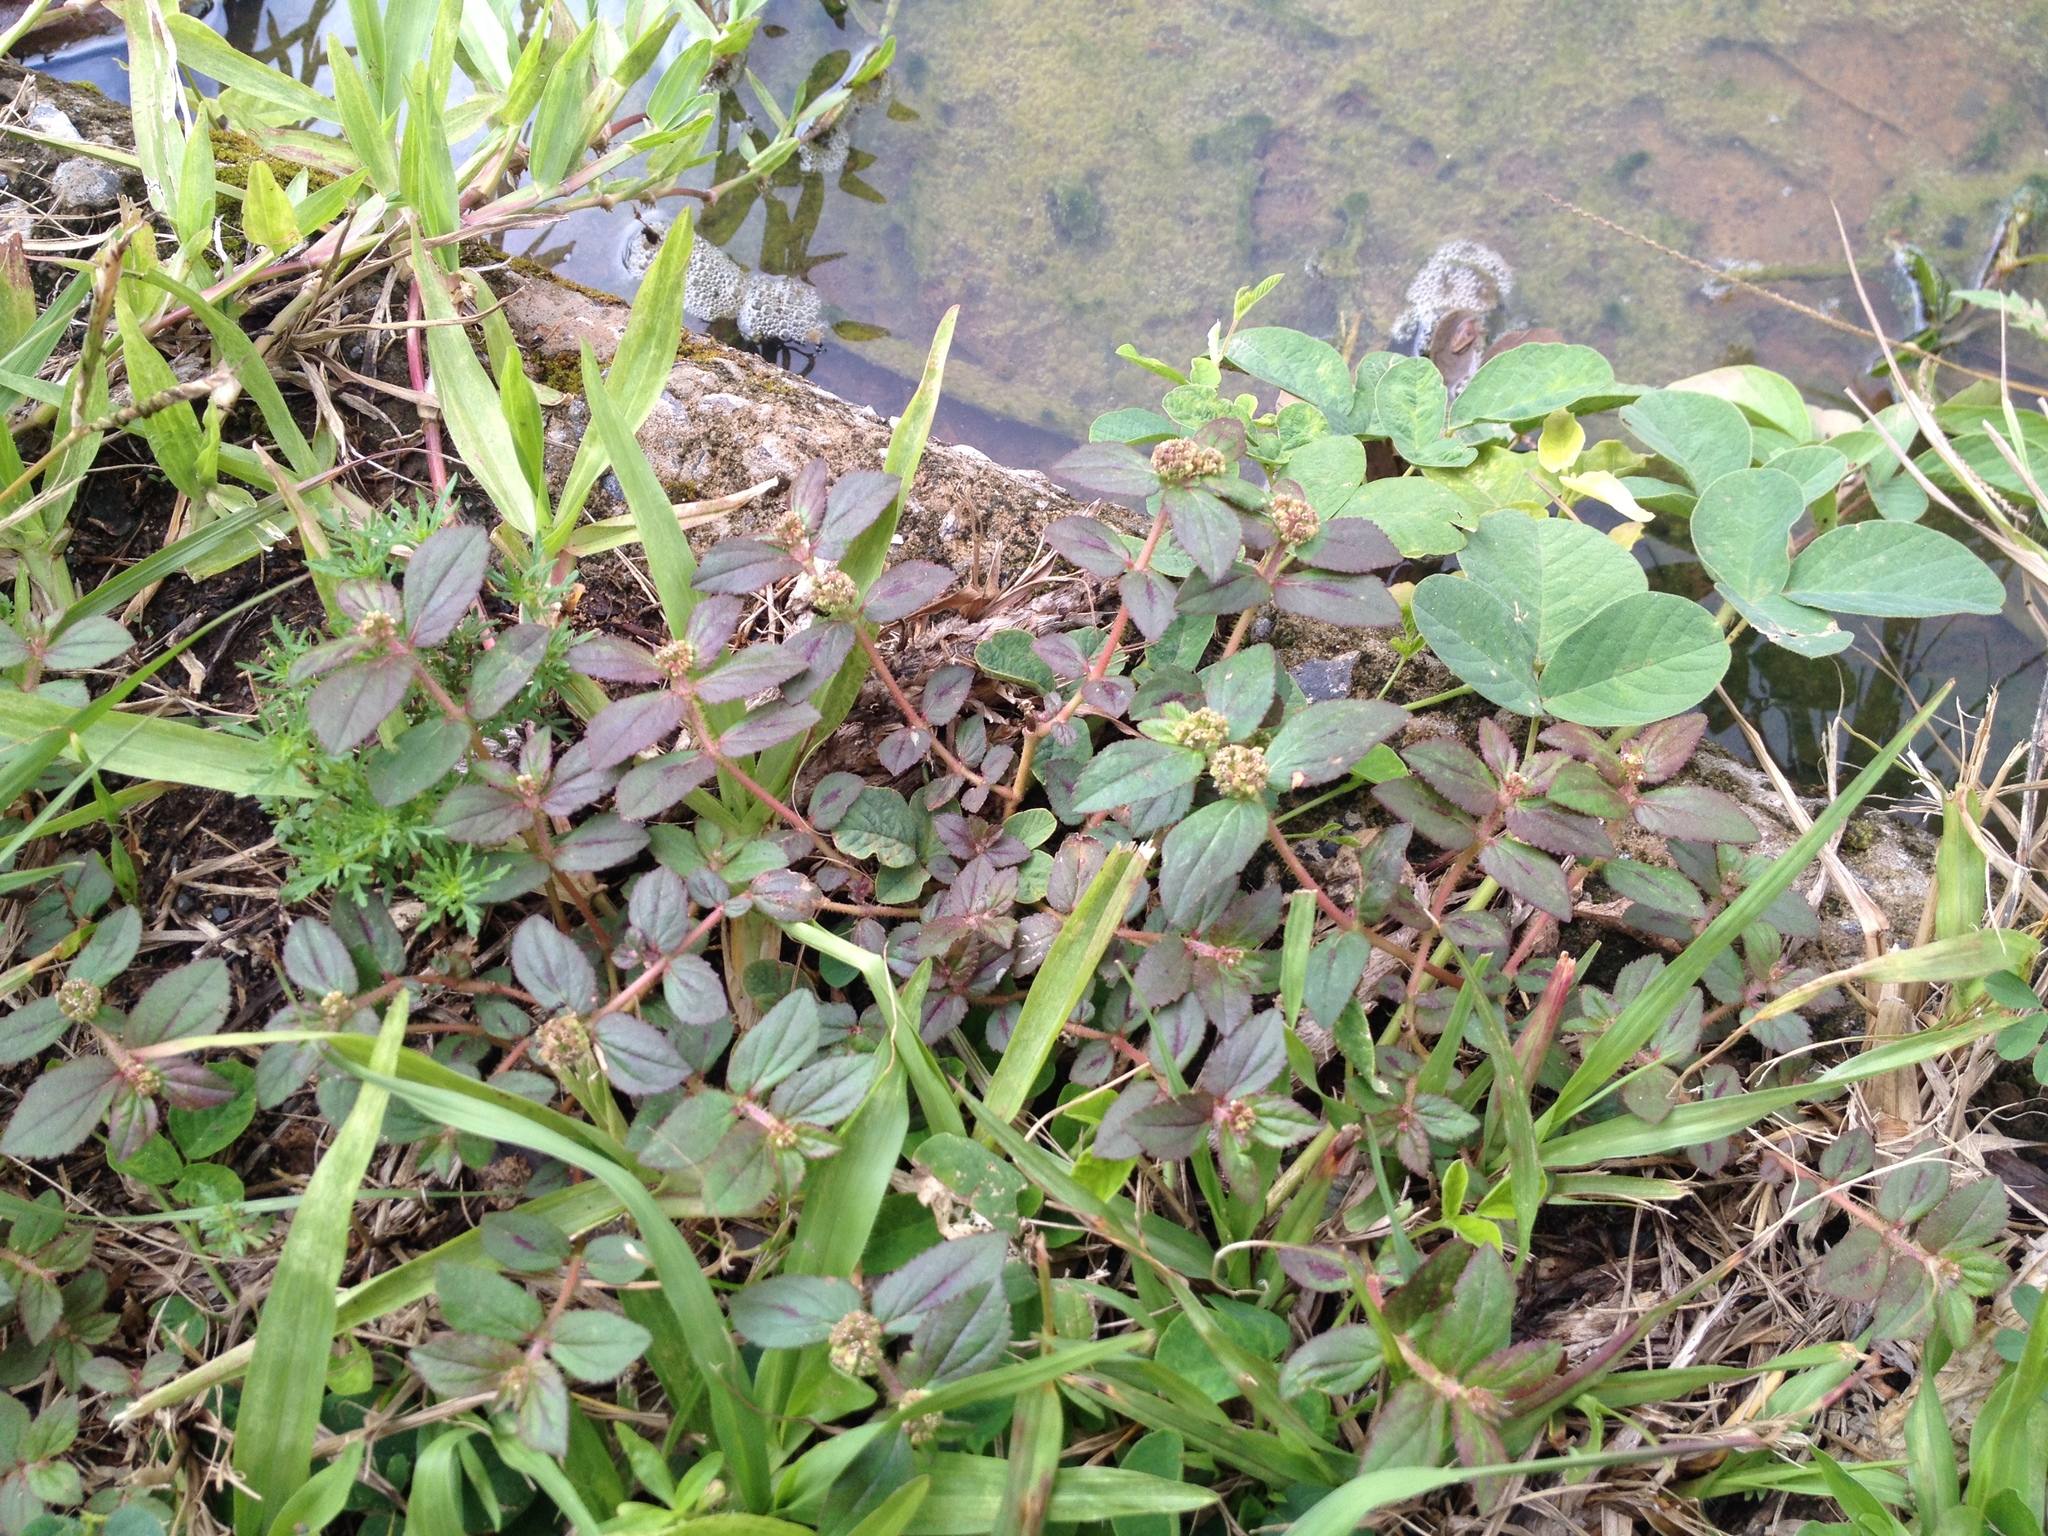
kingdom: Plantae
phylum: Tracheophyta
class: Magnoliopsida
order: Malpighiales
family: Euphorbiaceae
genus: Euphorbia
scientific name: Euphorbia hirta
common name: Pillpod sandmat
